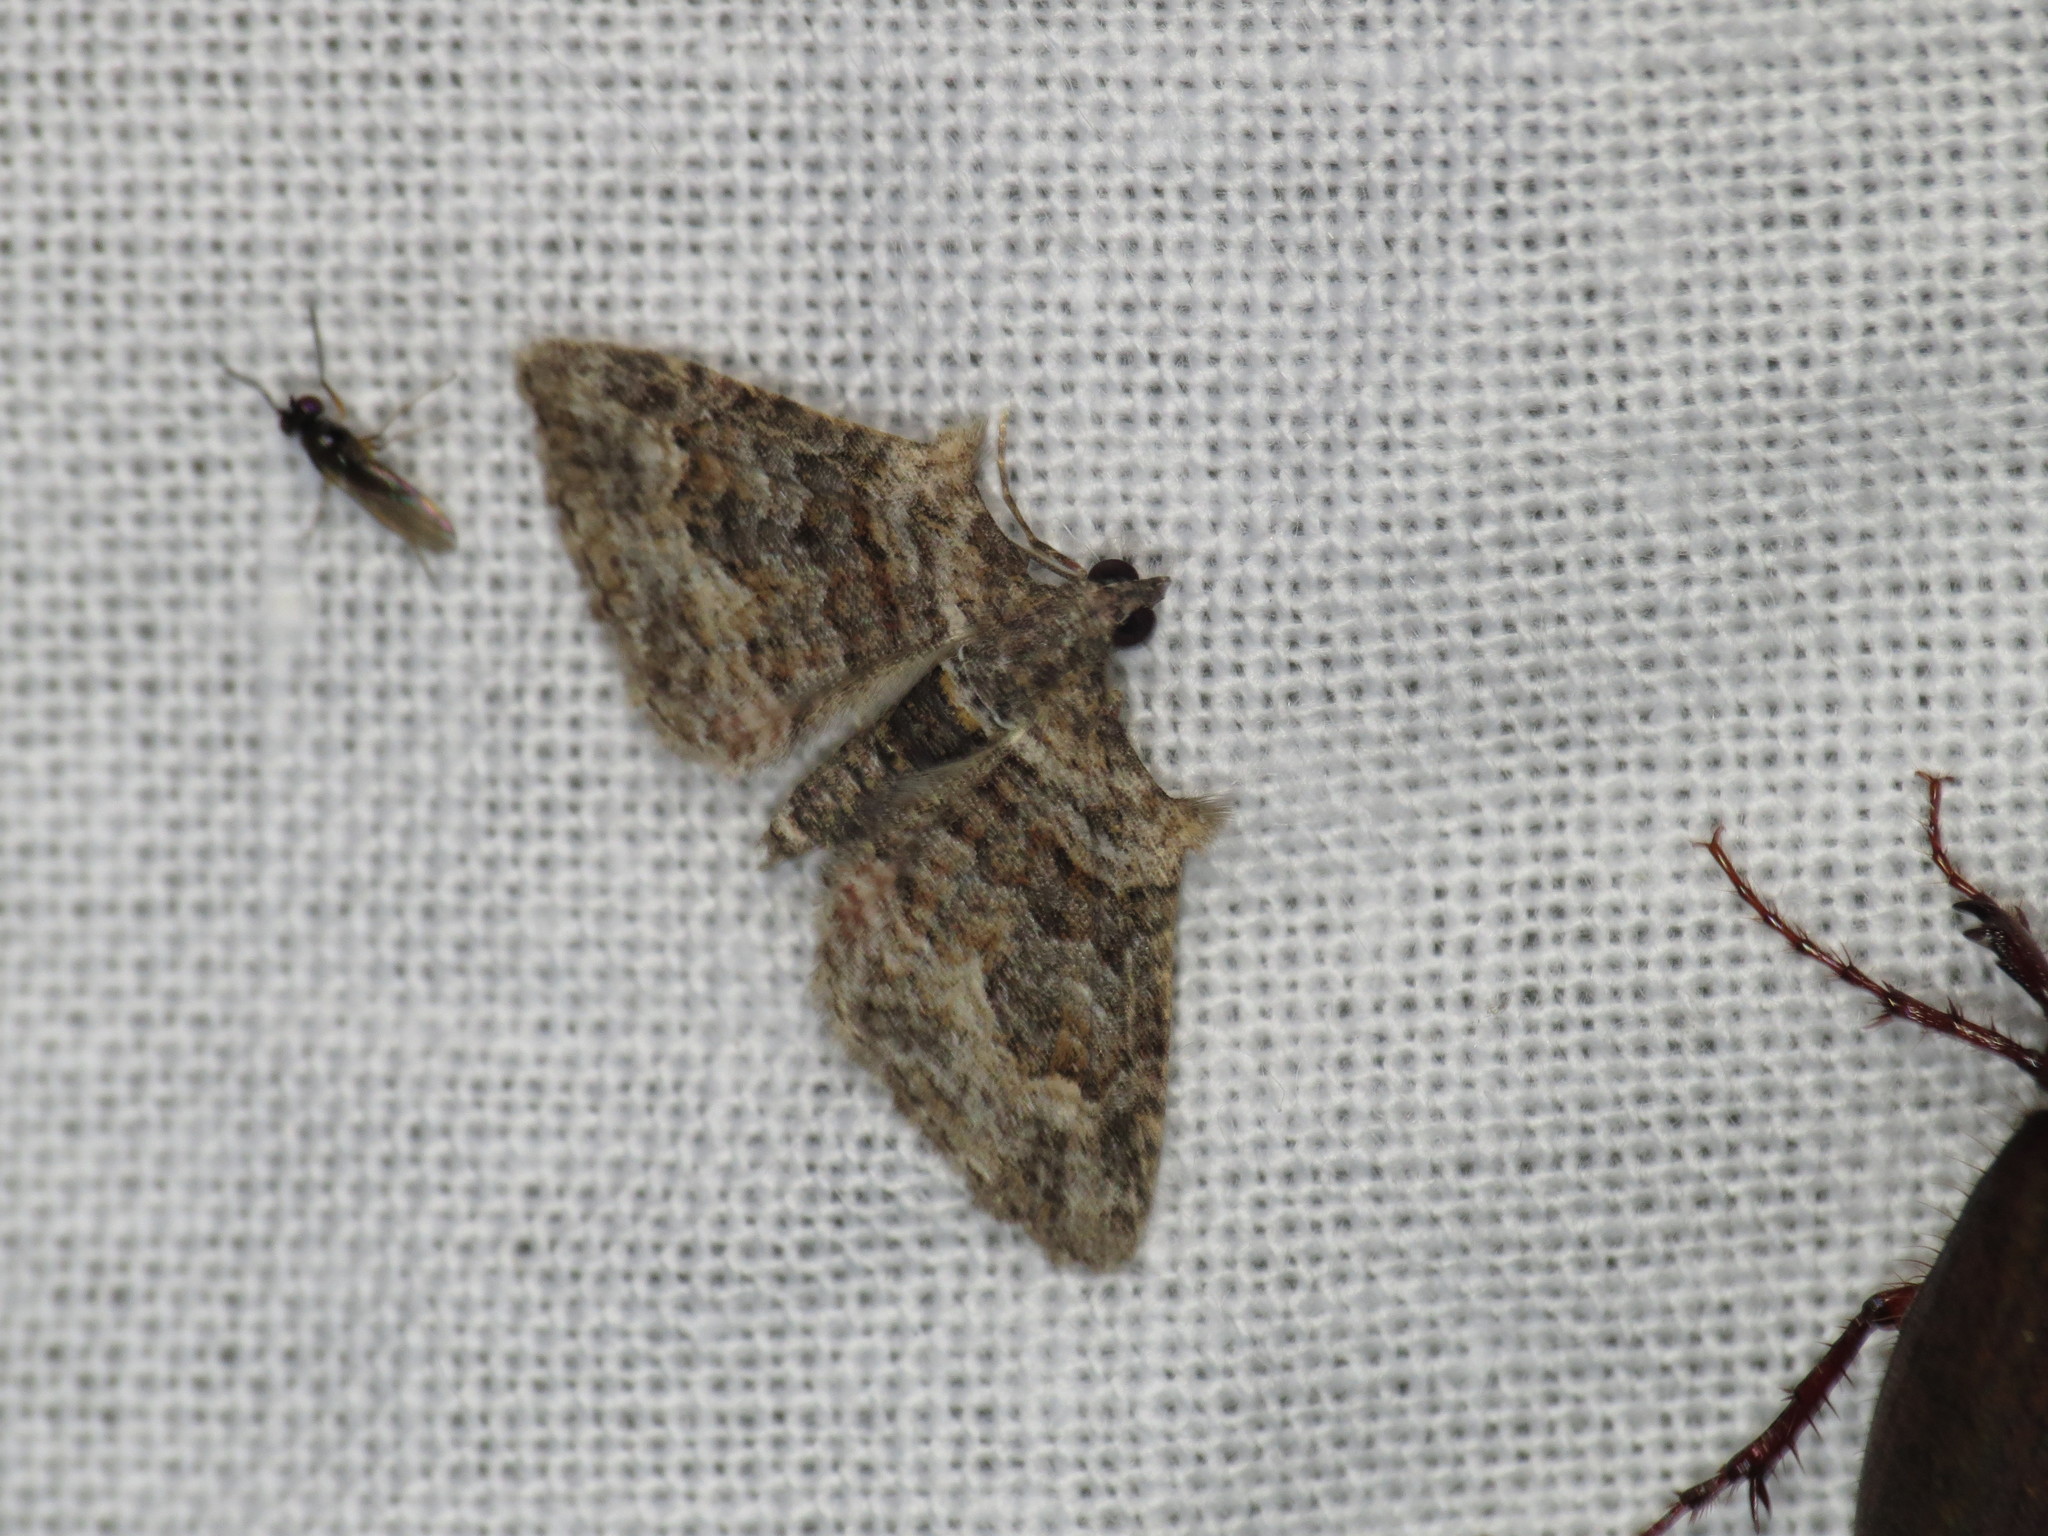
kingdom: Animalia
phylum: Arthropoda
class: Insecta
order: Lepidoptera
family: Geometridae
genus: Phrissogonus
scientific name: Phrissogonus laticostata
